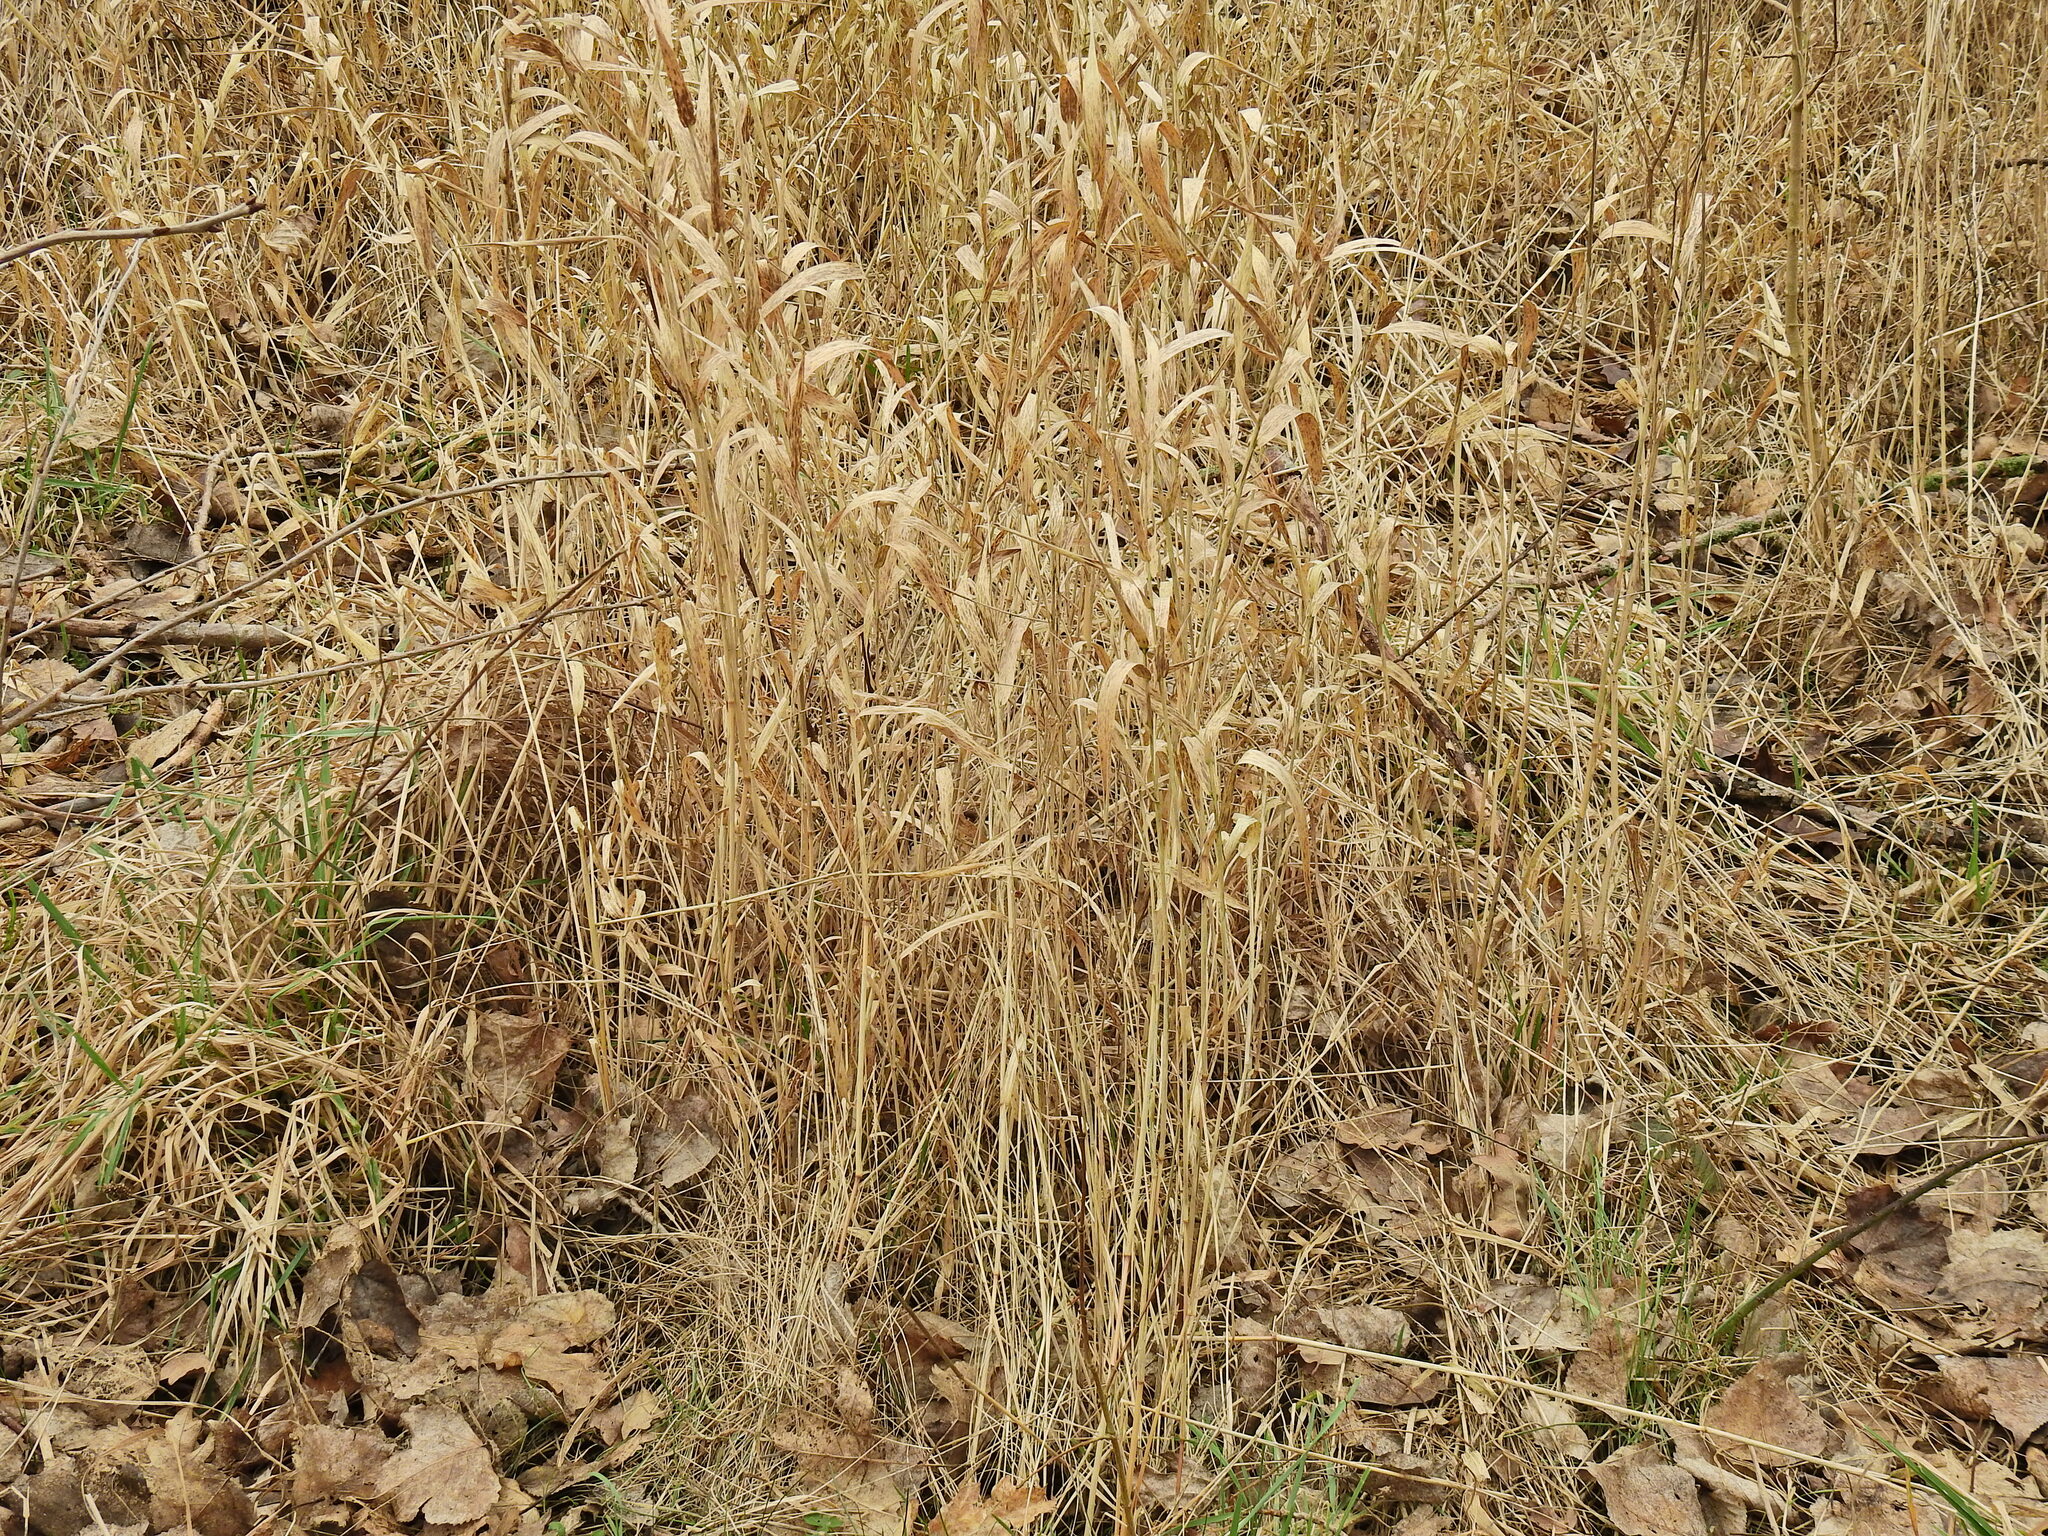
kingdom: Plantae
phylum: Tracheophyta
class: Liliopsida
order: Poales
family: Poaceae
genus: Phalaris
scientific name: Phalaris arundinacea
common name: Reed canary-grass
